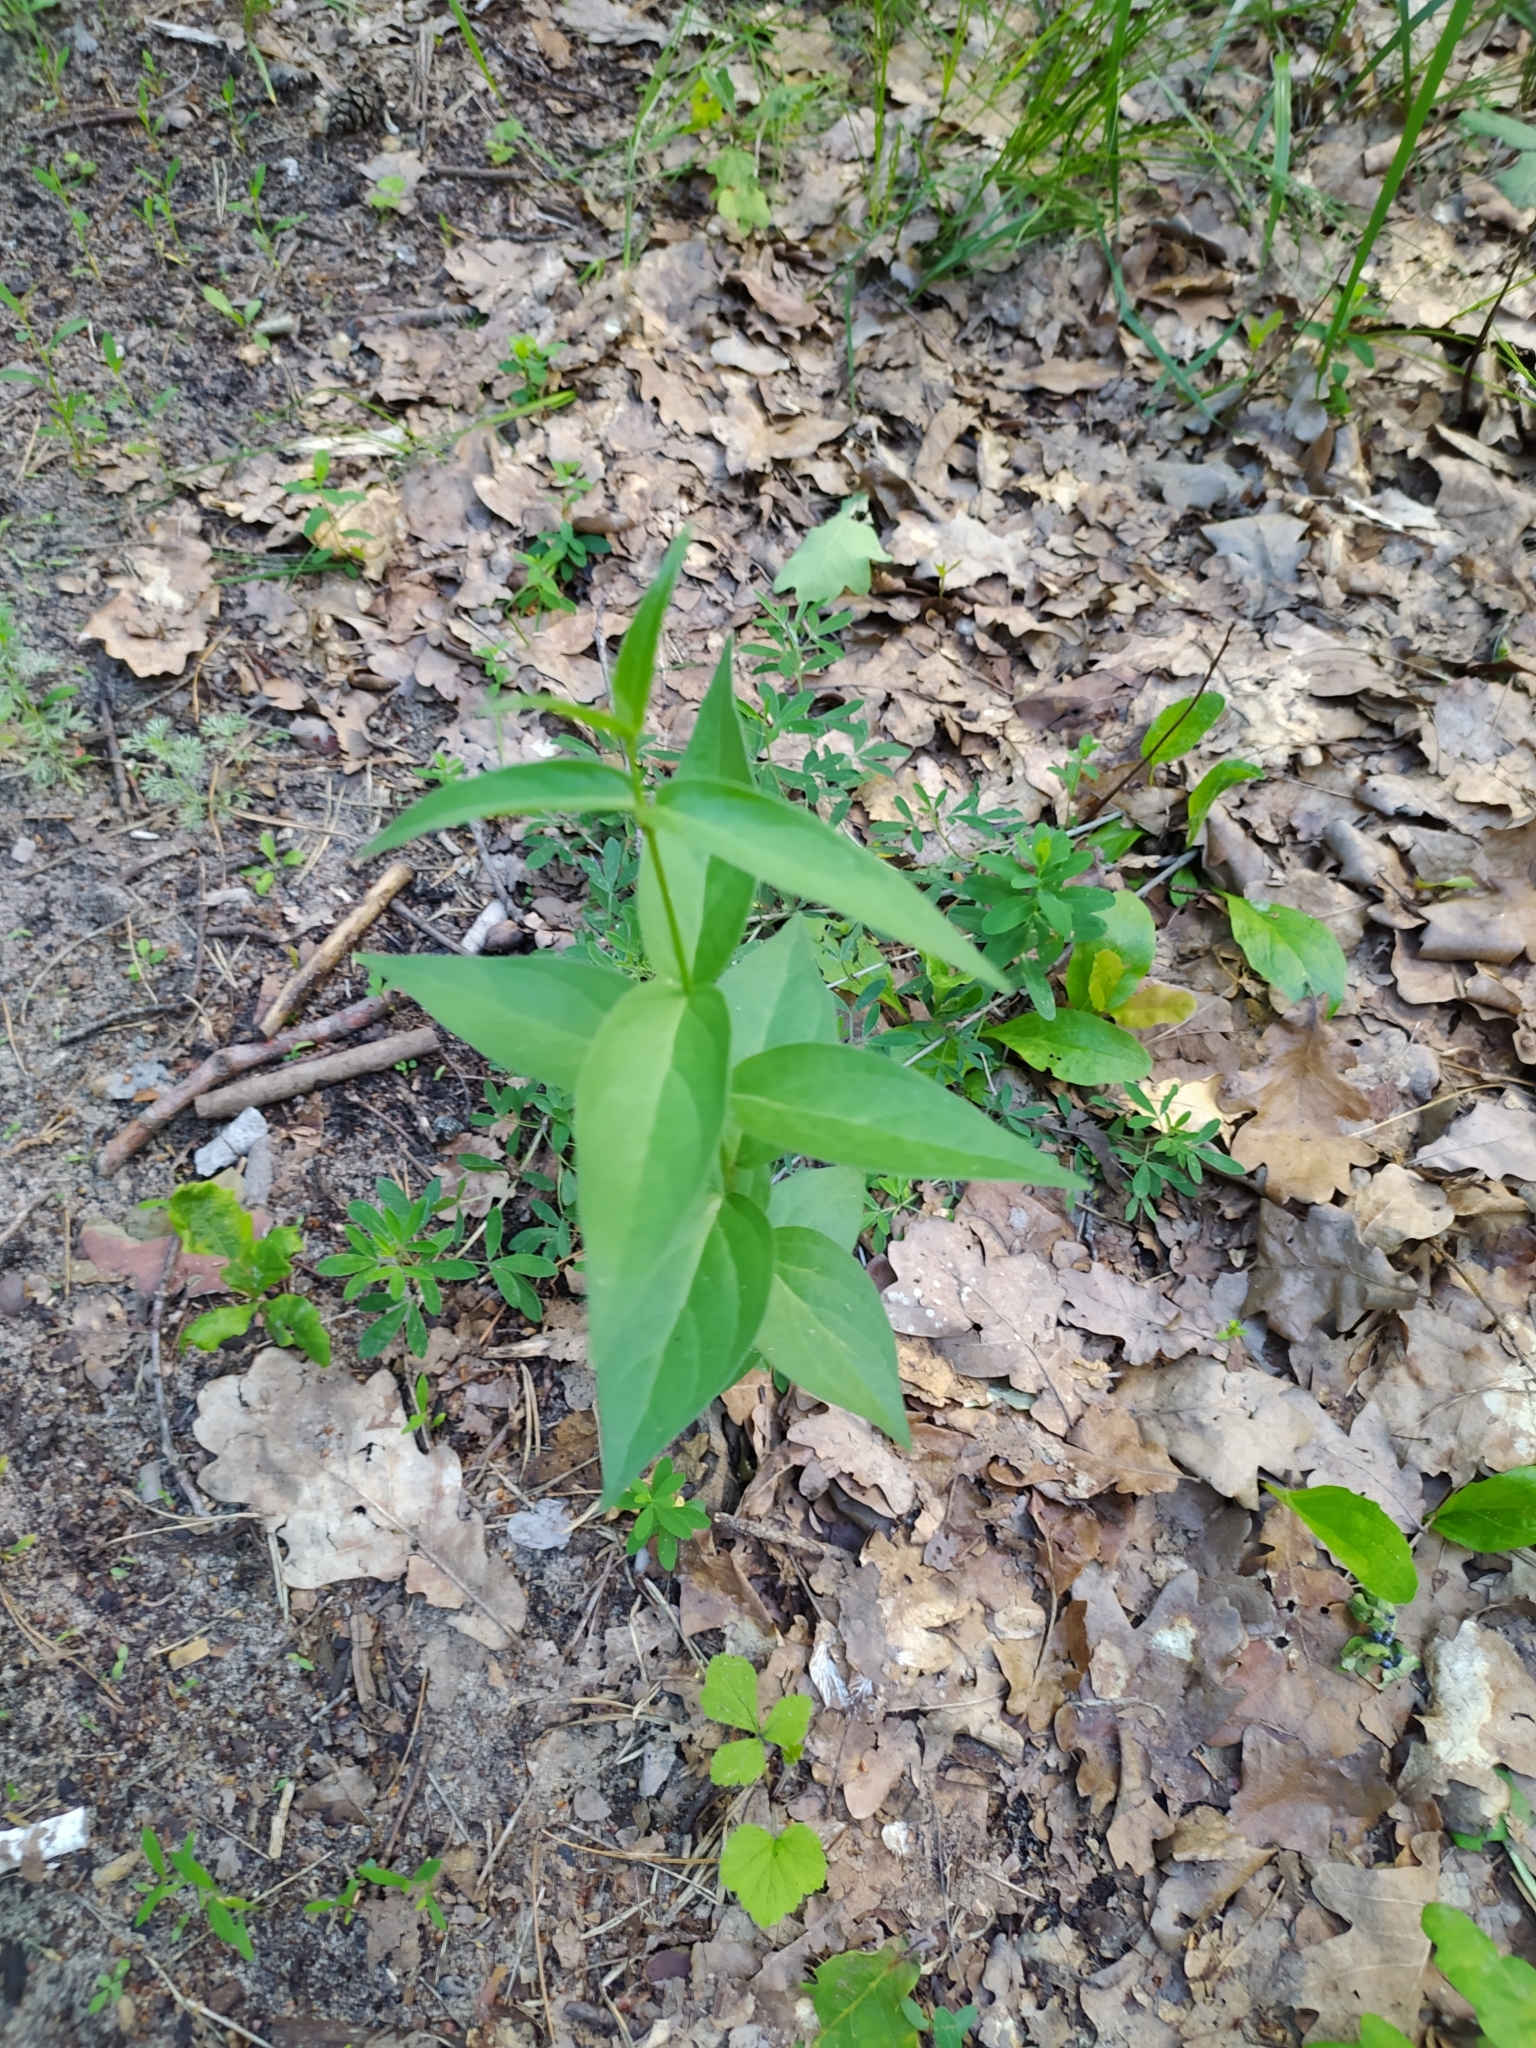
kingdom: Plantae
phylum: Tracheophyta
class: Magnoliopsida
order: Gentianales
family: Apocynaceae
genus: Vincetoxicum
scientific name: Vincetoxicum hirundinaria
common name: White swallowwort
